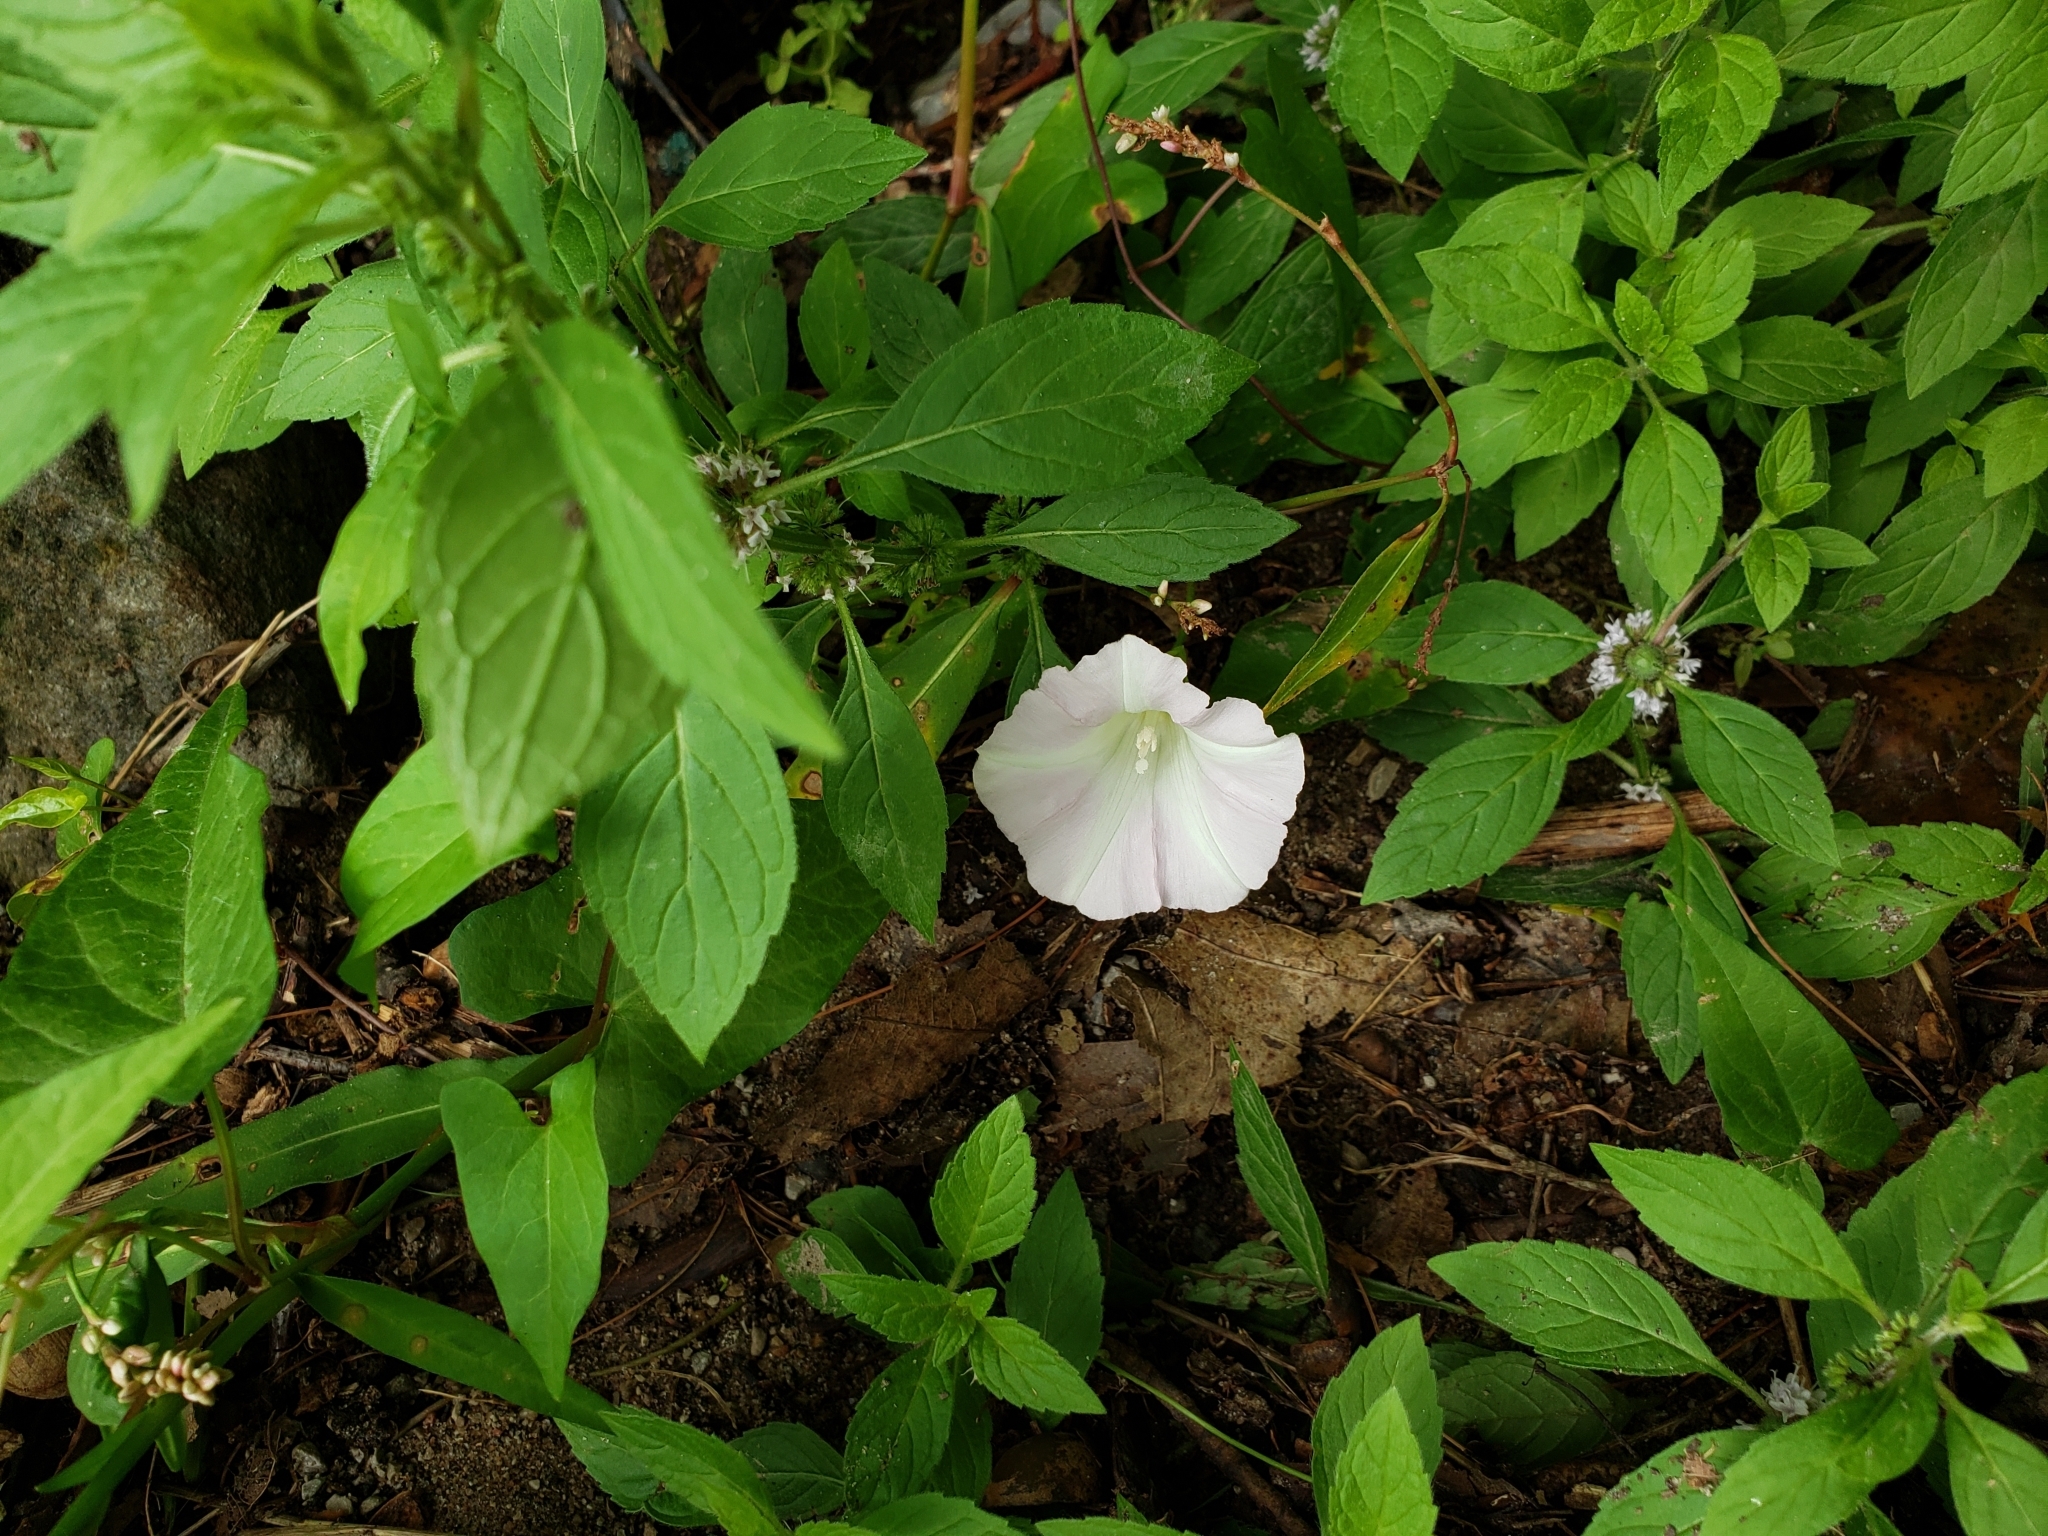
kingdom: Plantae
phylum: Tracheophyta
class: Magnoliopsida
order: Solanales
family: Convolvulaceae
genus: Calystegia
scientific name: Calystegia sepium
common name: Hedge bindweed
